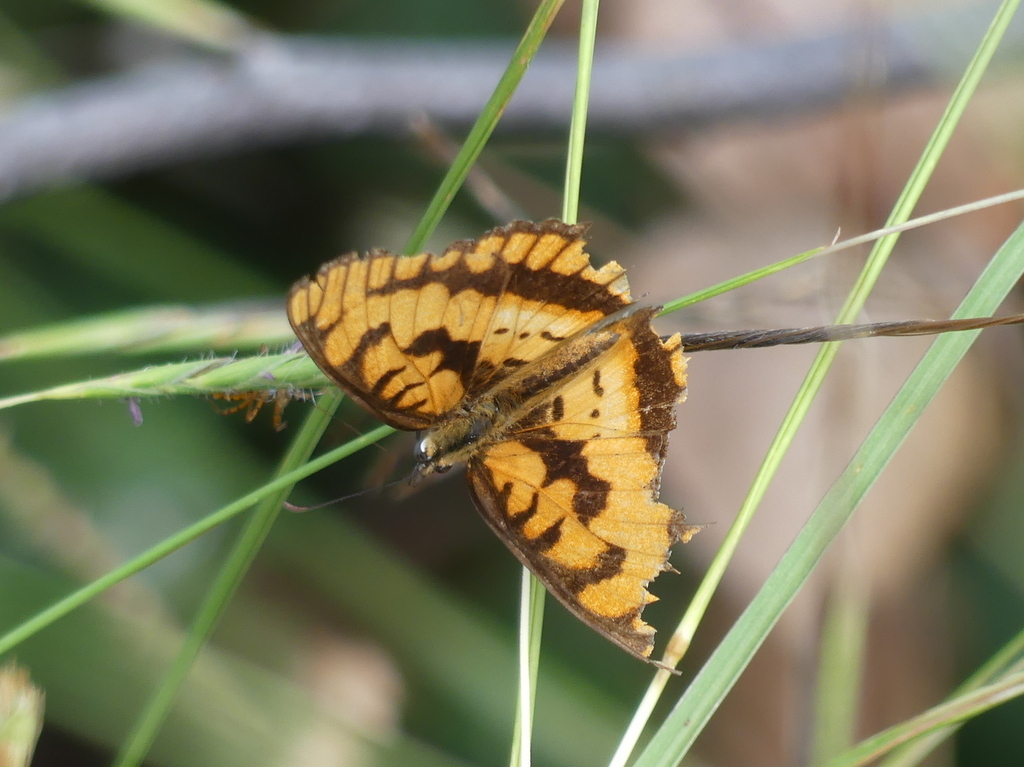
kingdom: Animalia
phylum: Arthropoda
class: Insecta
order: Lepidoptera
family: Nymphalidae
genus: Byblia
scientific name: Byblia ilithyia
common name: Spotted joker
